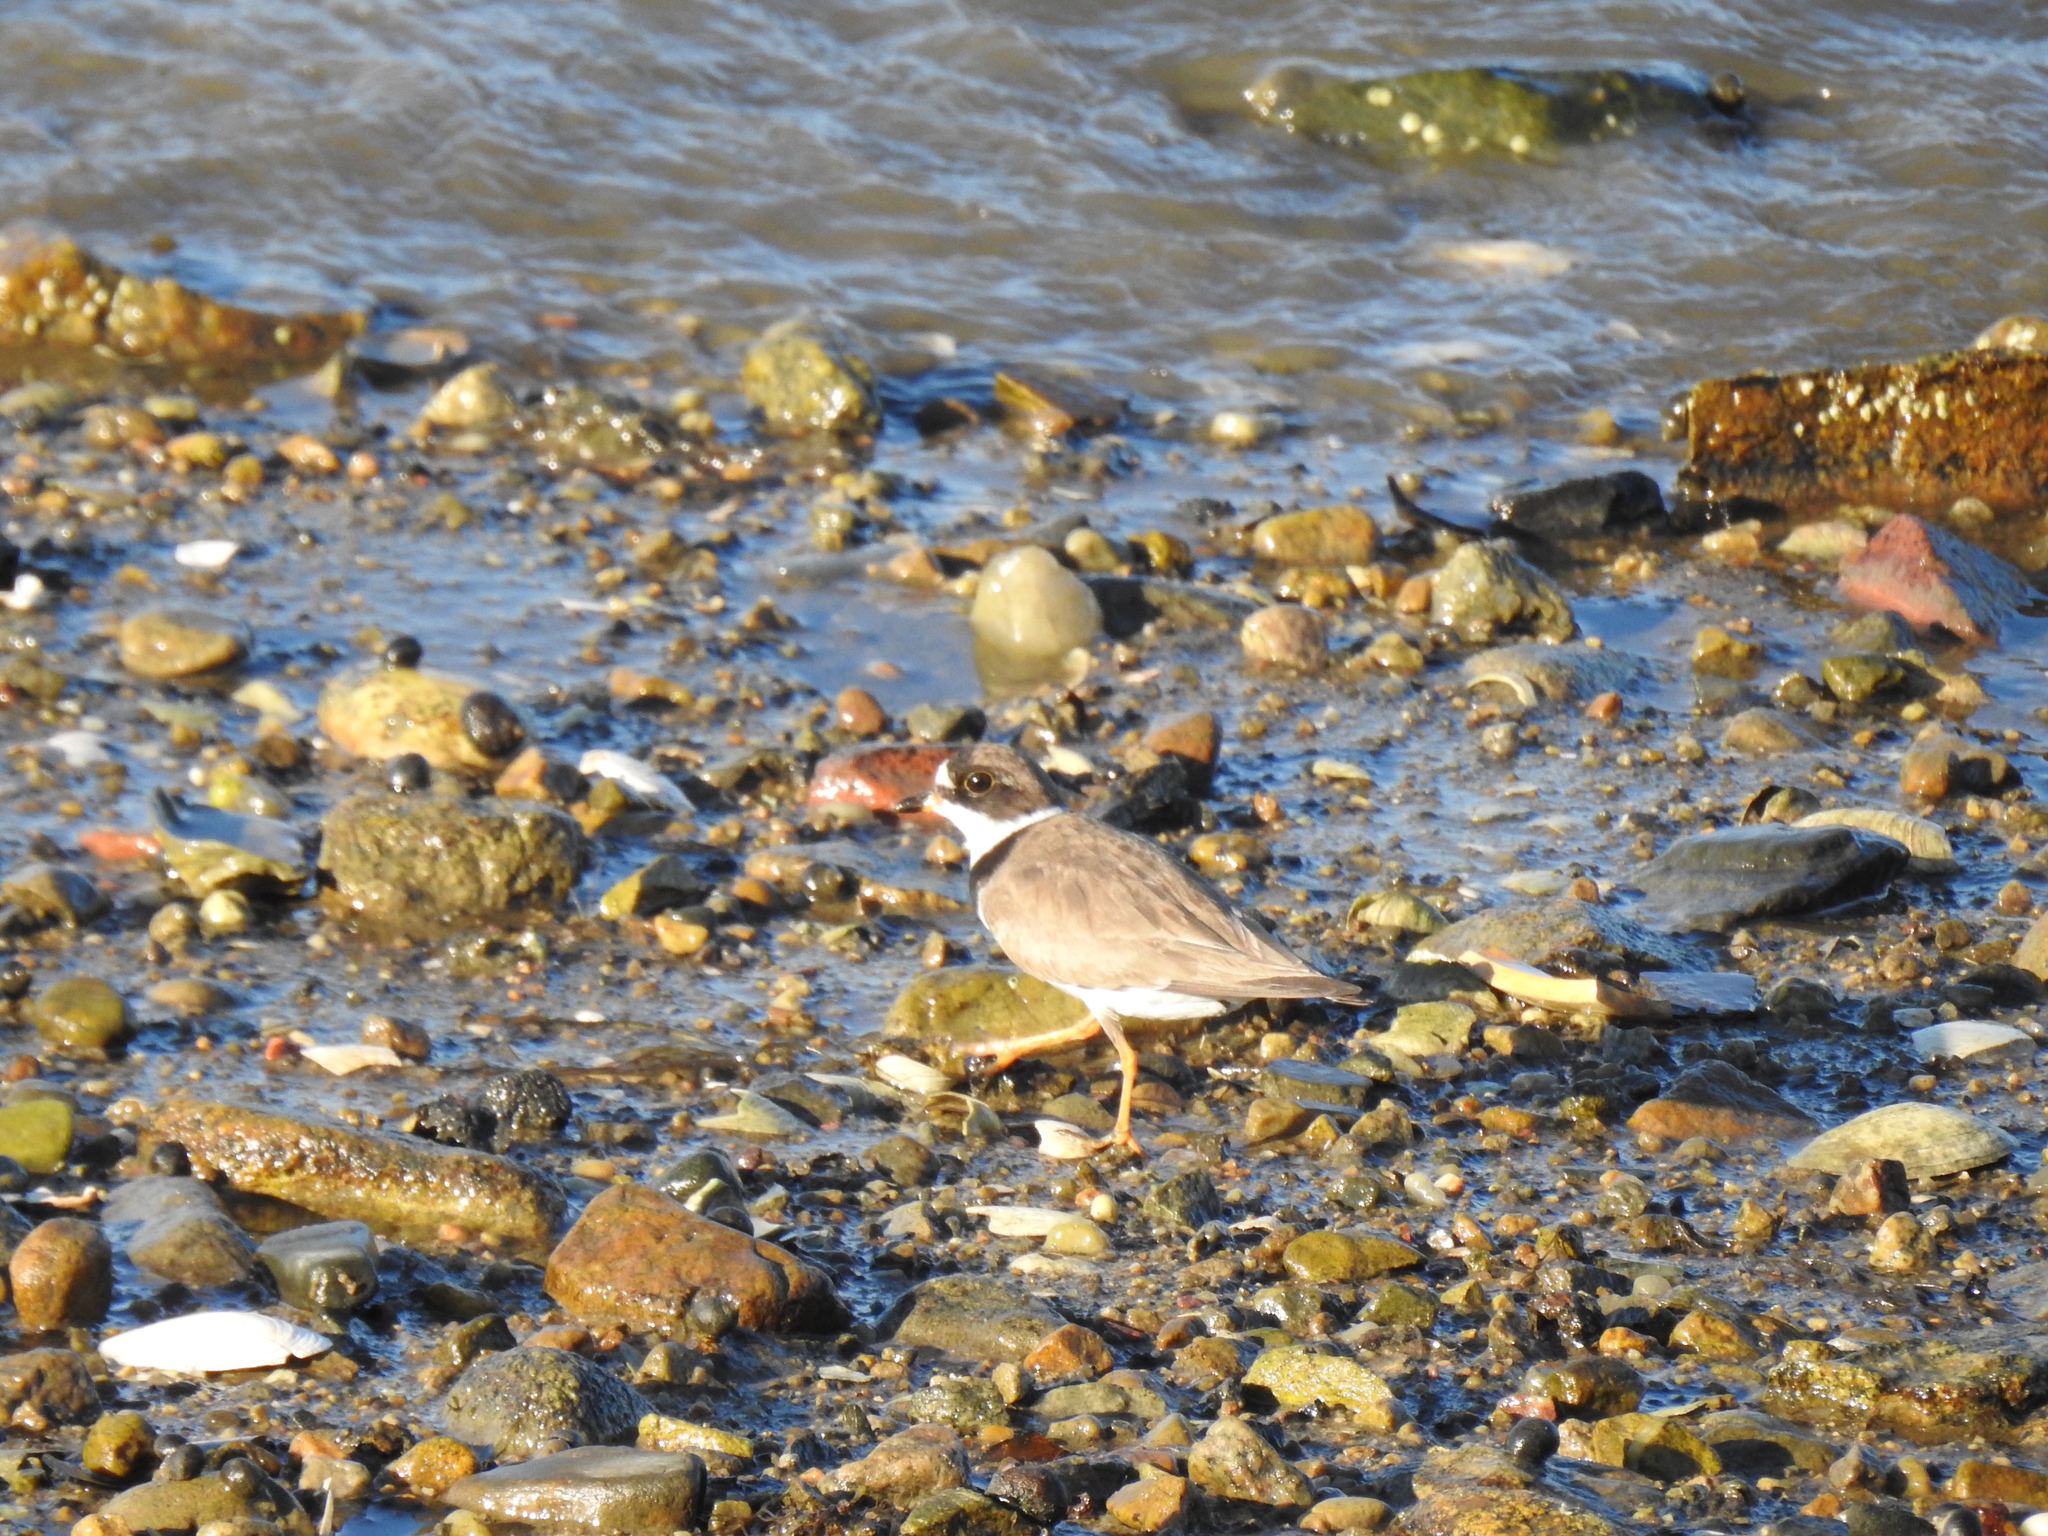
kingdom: Animalia
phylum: Chordata
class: Aves
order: Charadriiformes
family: Charadriidae
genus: Charadrius
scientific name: Charadrius semipalmatus
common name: Semipalmated plover
